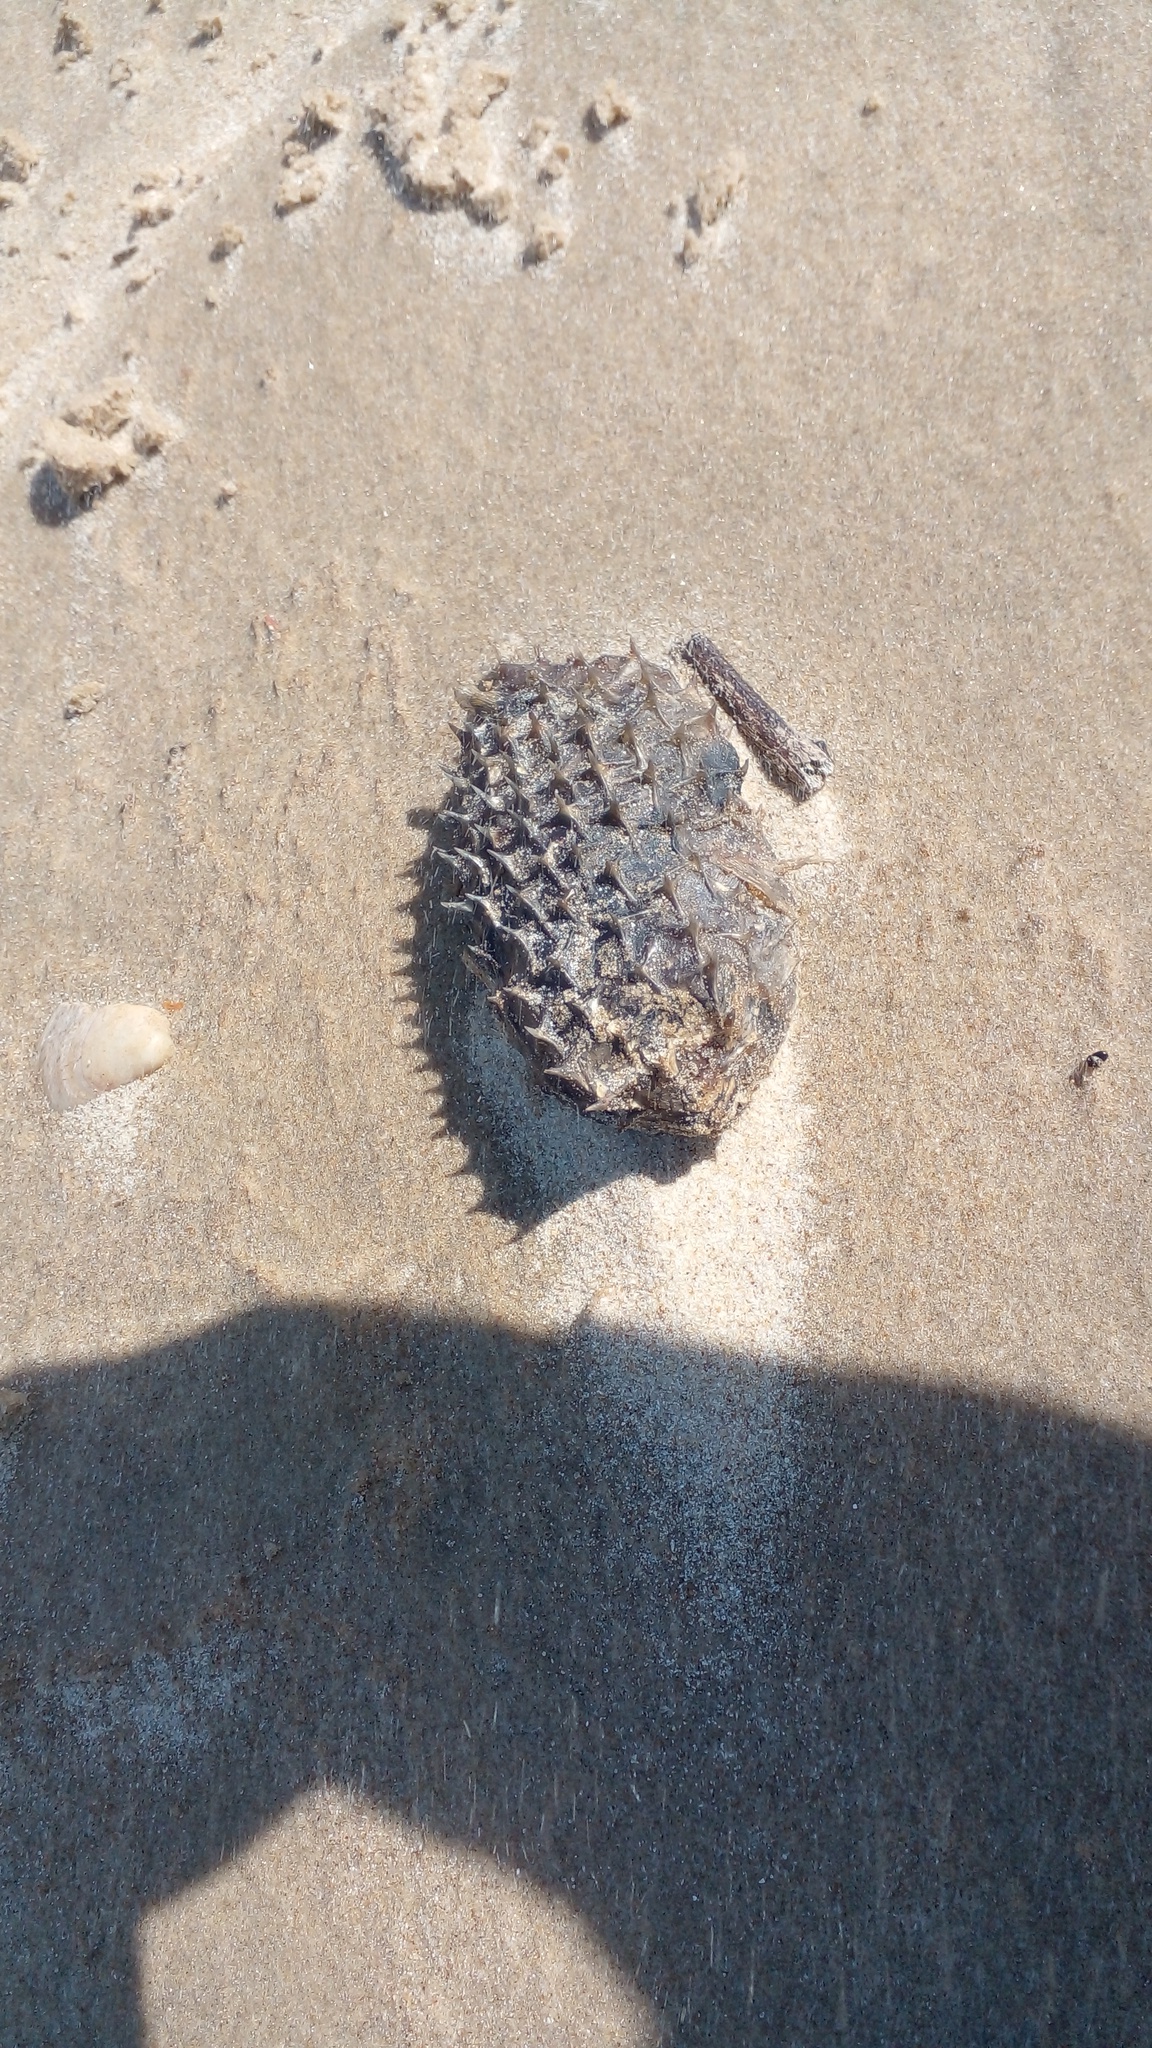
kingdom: Animalia
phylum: Chordata
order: Tetraodontiformes
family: Diodontidae
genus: Chilomycterus
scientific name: Chilomycterus spinosus
